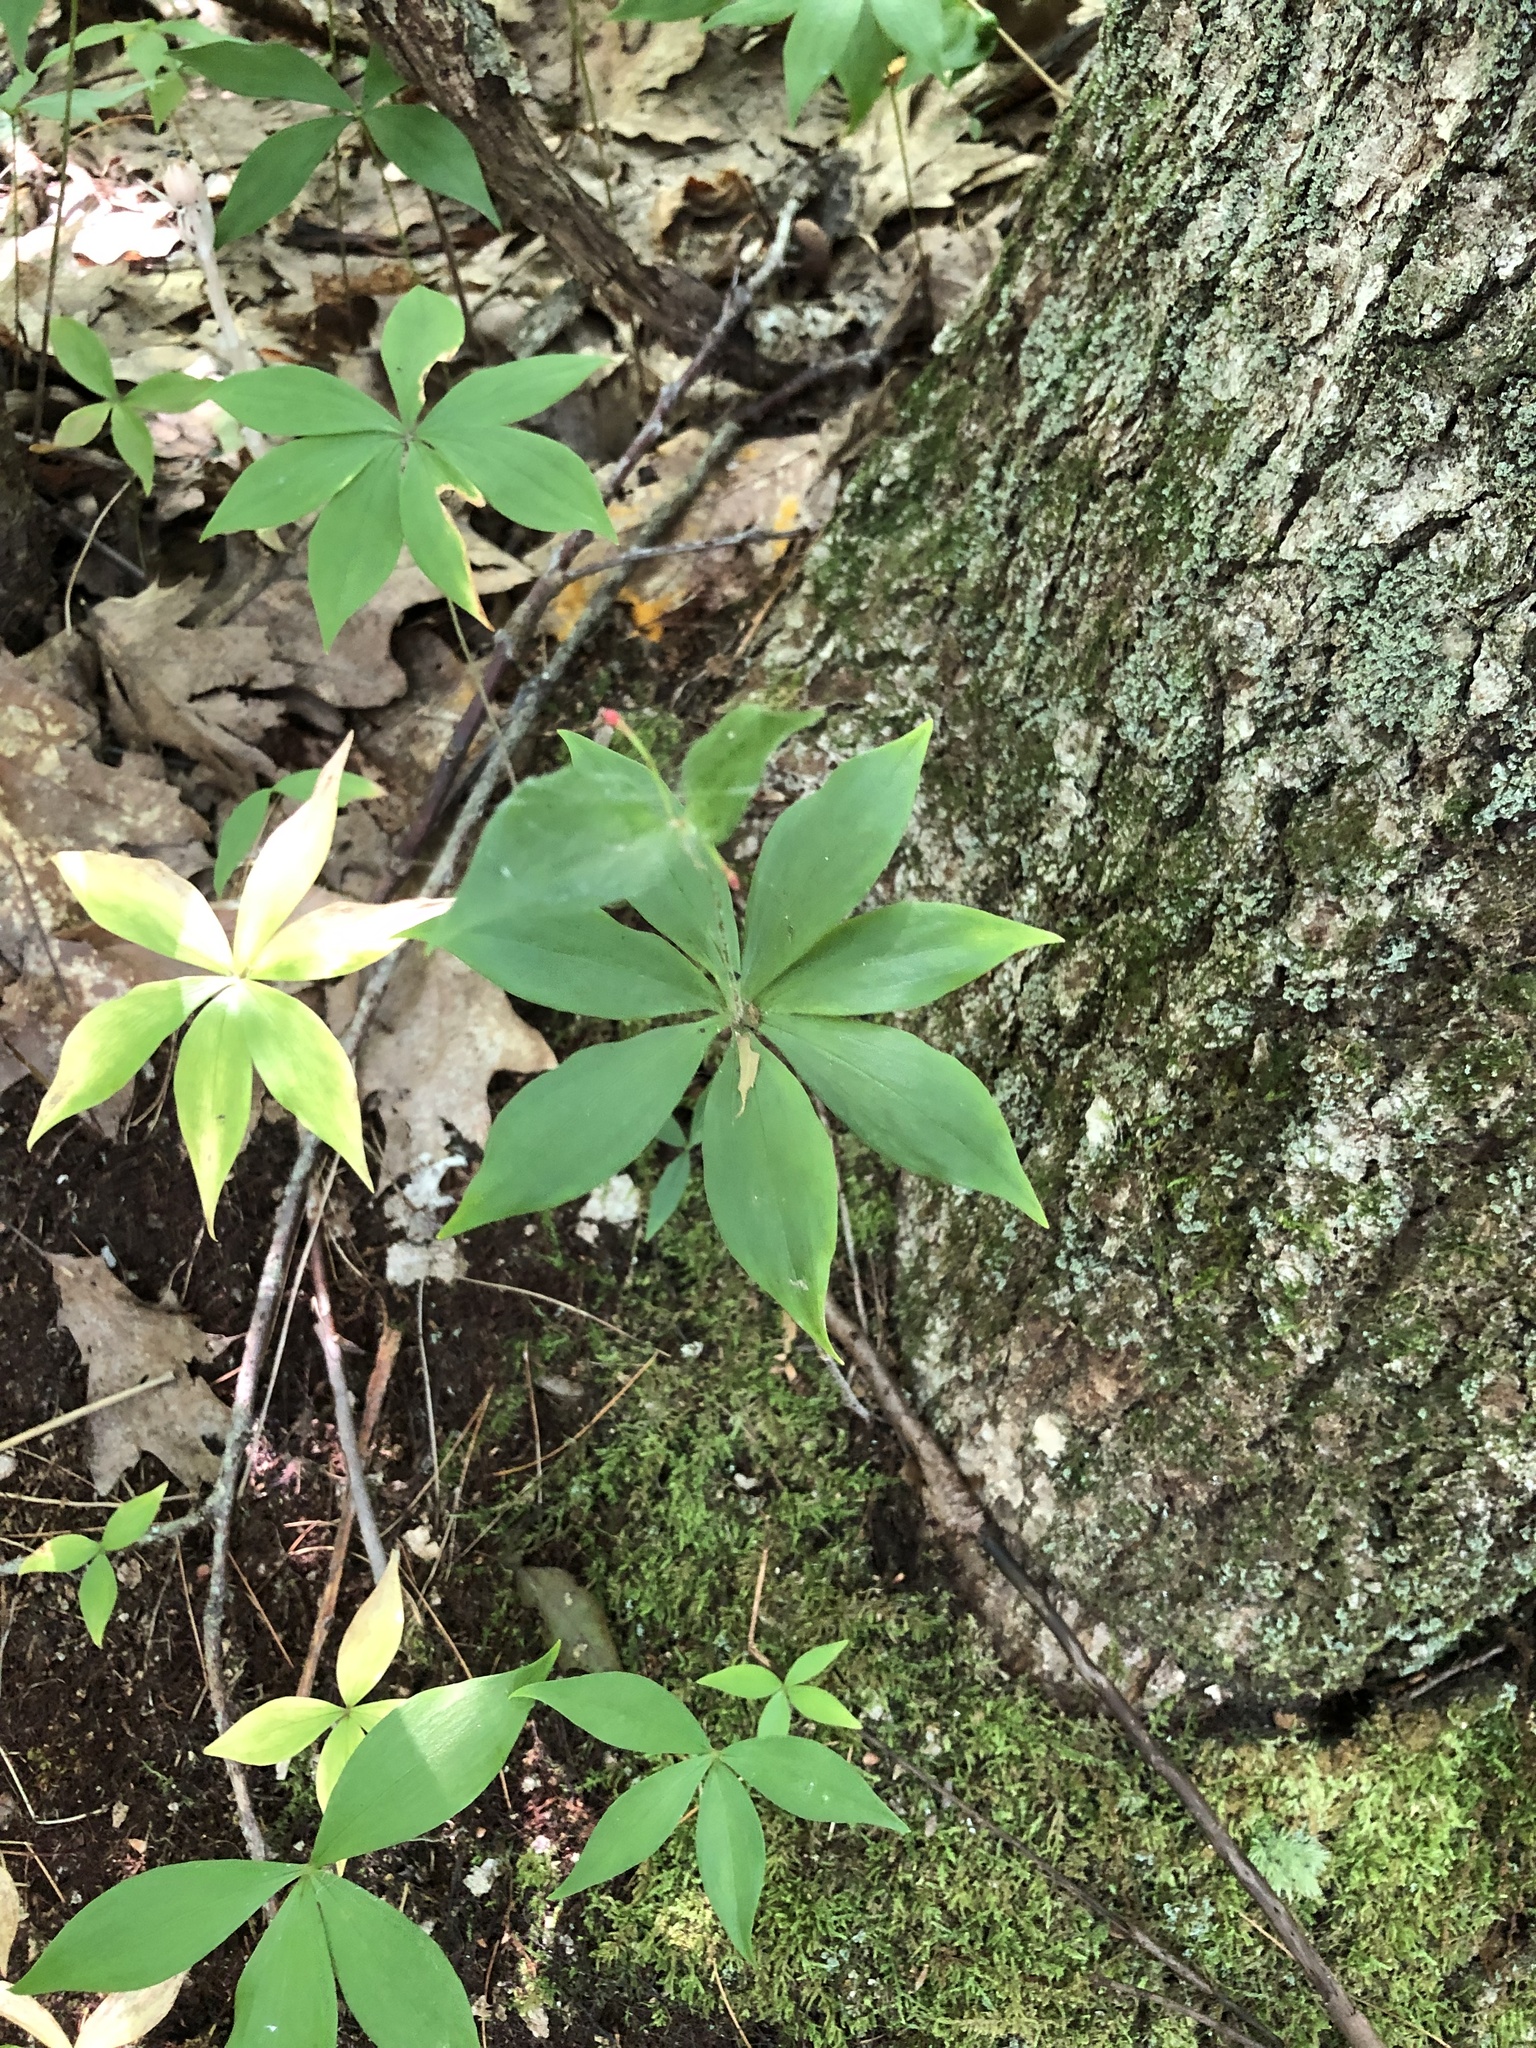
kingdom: Plantae
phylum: Tracheophyta
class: Liliopsida
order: Liliales
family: Liliaceae
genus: Medeola
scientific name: Medeola virginiana
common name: Indian cucumber-root
